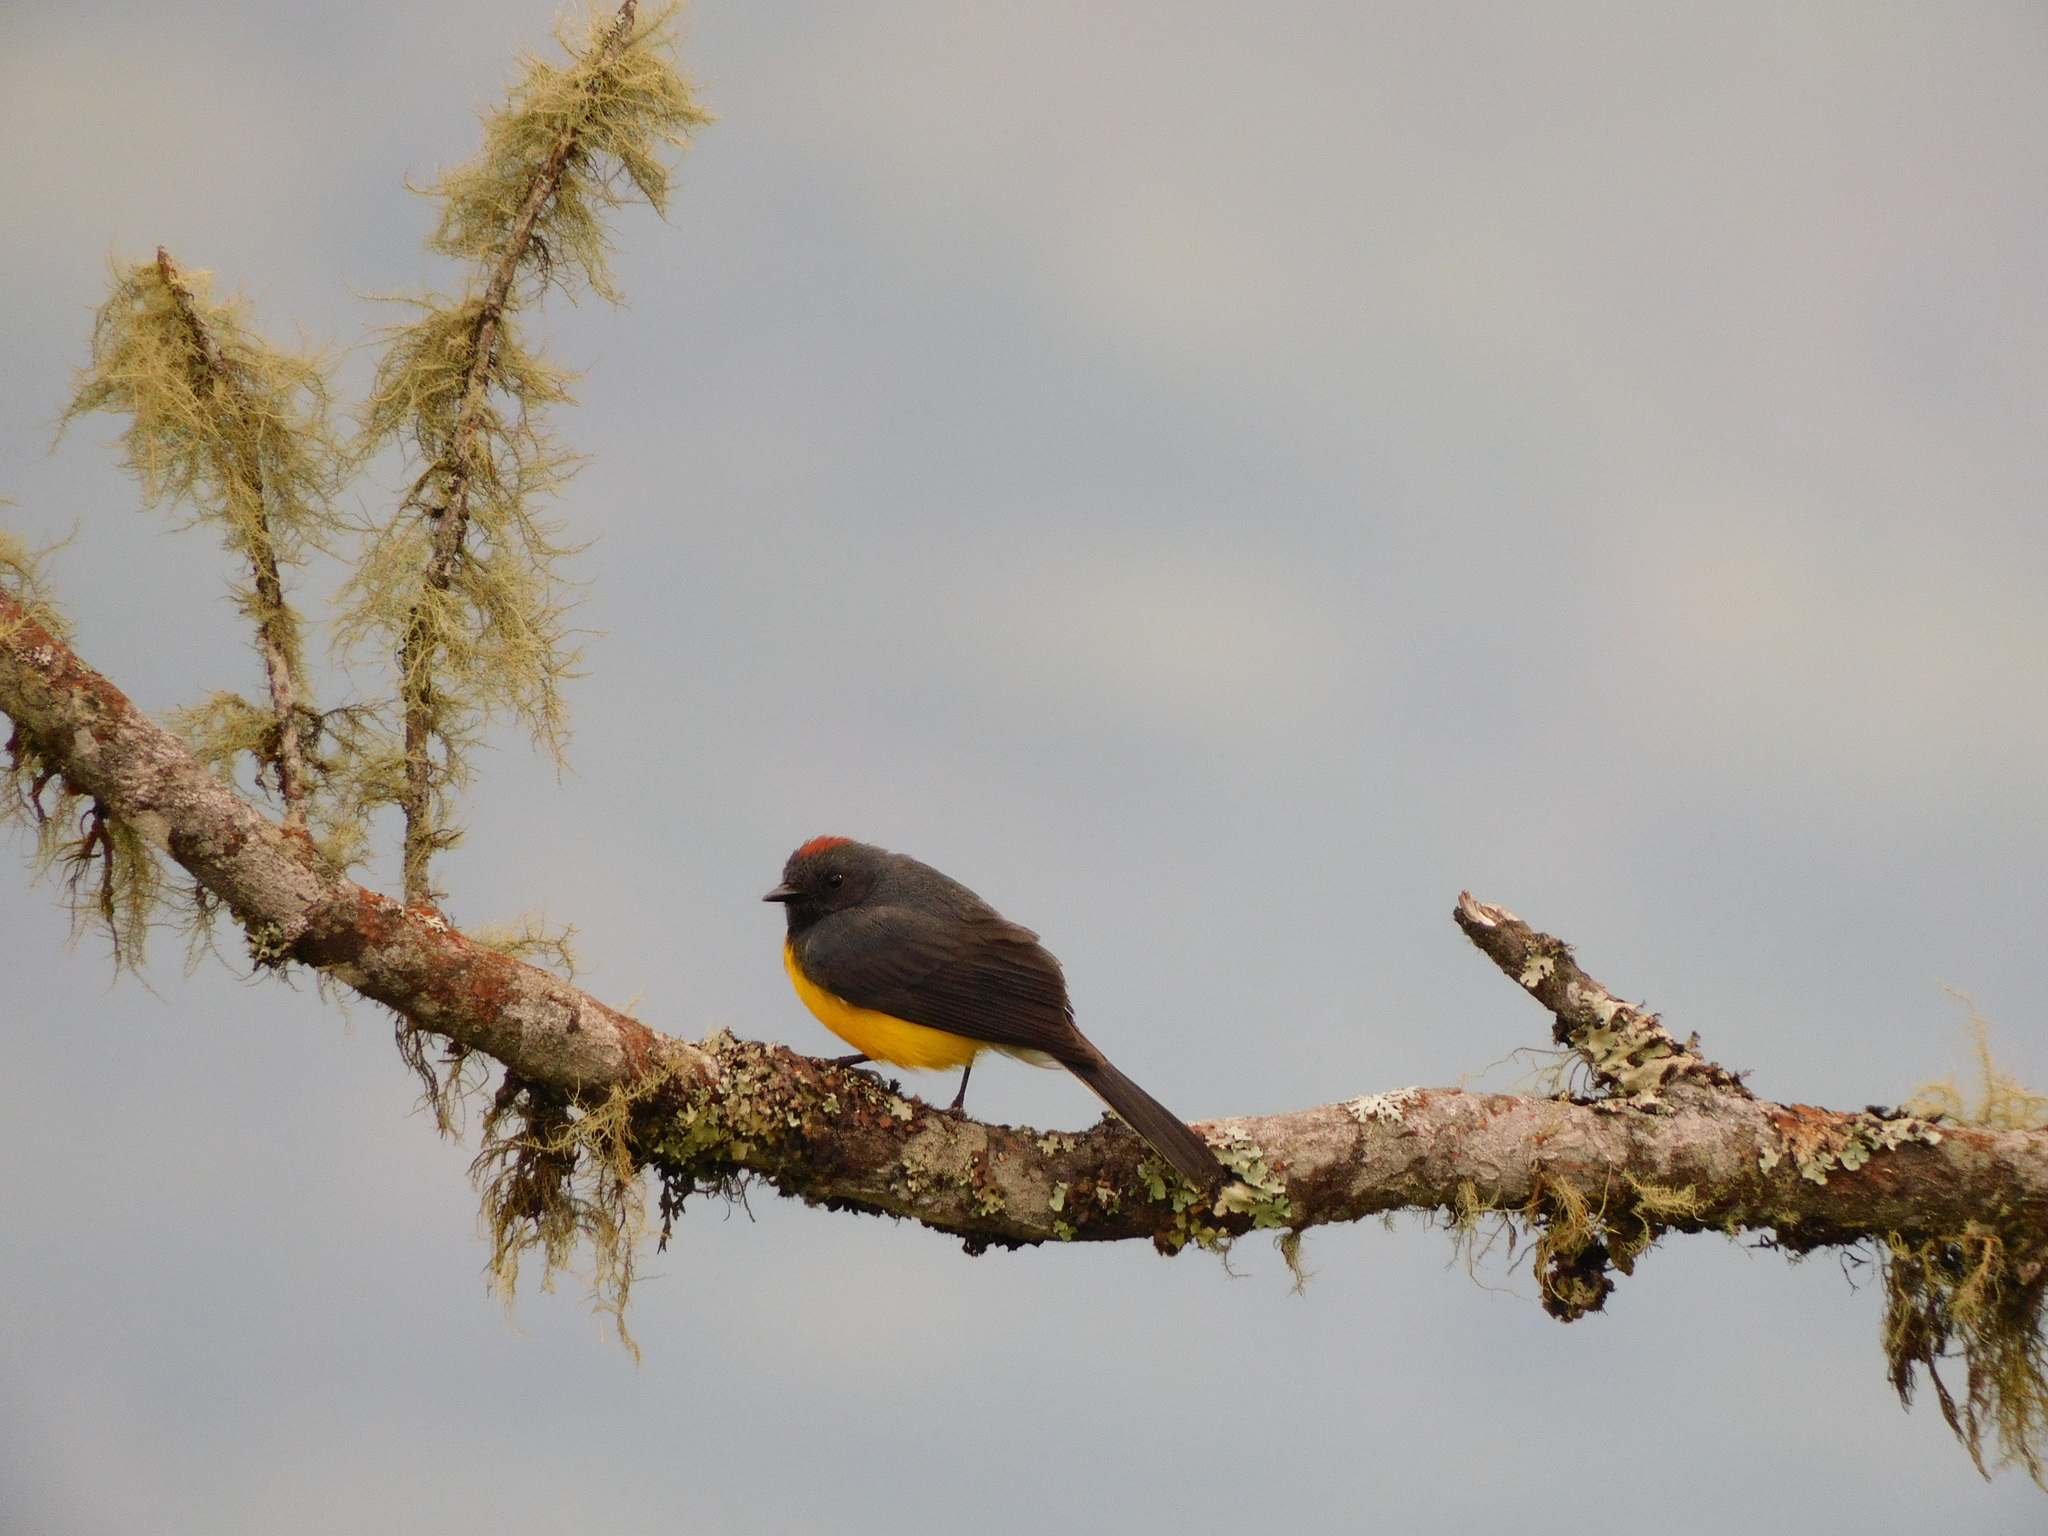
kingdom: Animalia
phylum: Chordata
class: Aves
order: Passeriformes
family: Parulidae
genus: Myioborus
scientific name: Myioborus miniatus
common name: Slate-throated redstart
